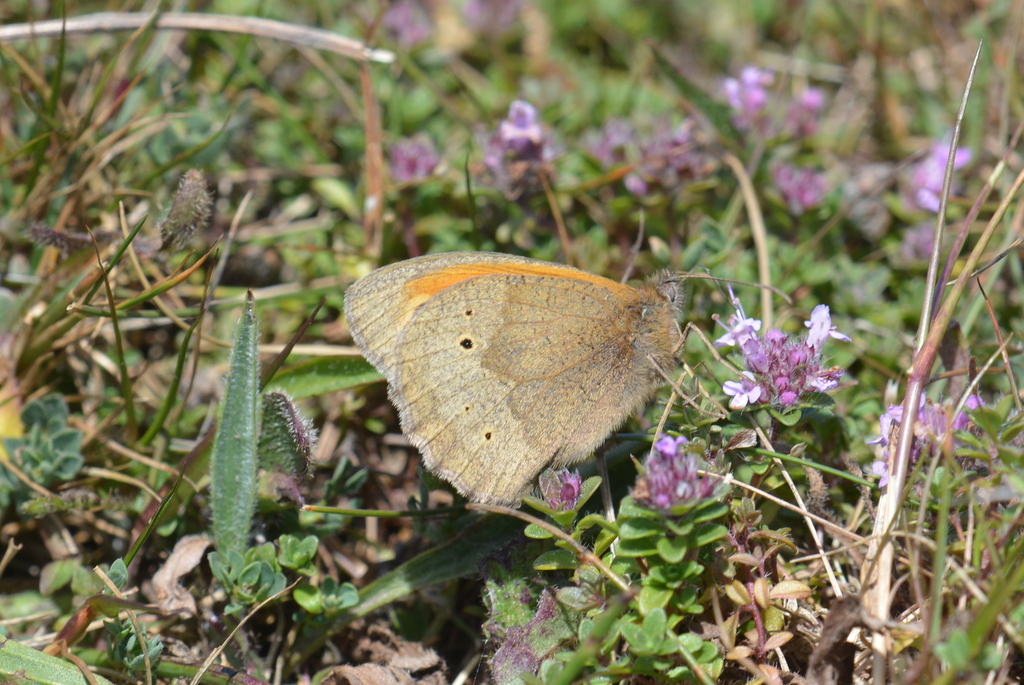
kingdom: Animalia
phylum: Arthropoda
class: Insecta
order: Lepidoptera
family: Nymphalidae
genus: Maniola
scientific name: Maniola jurtina
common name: Meadow brown
